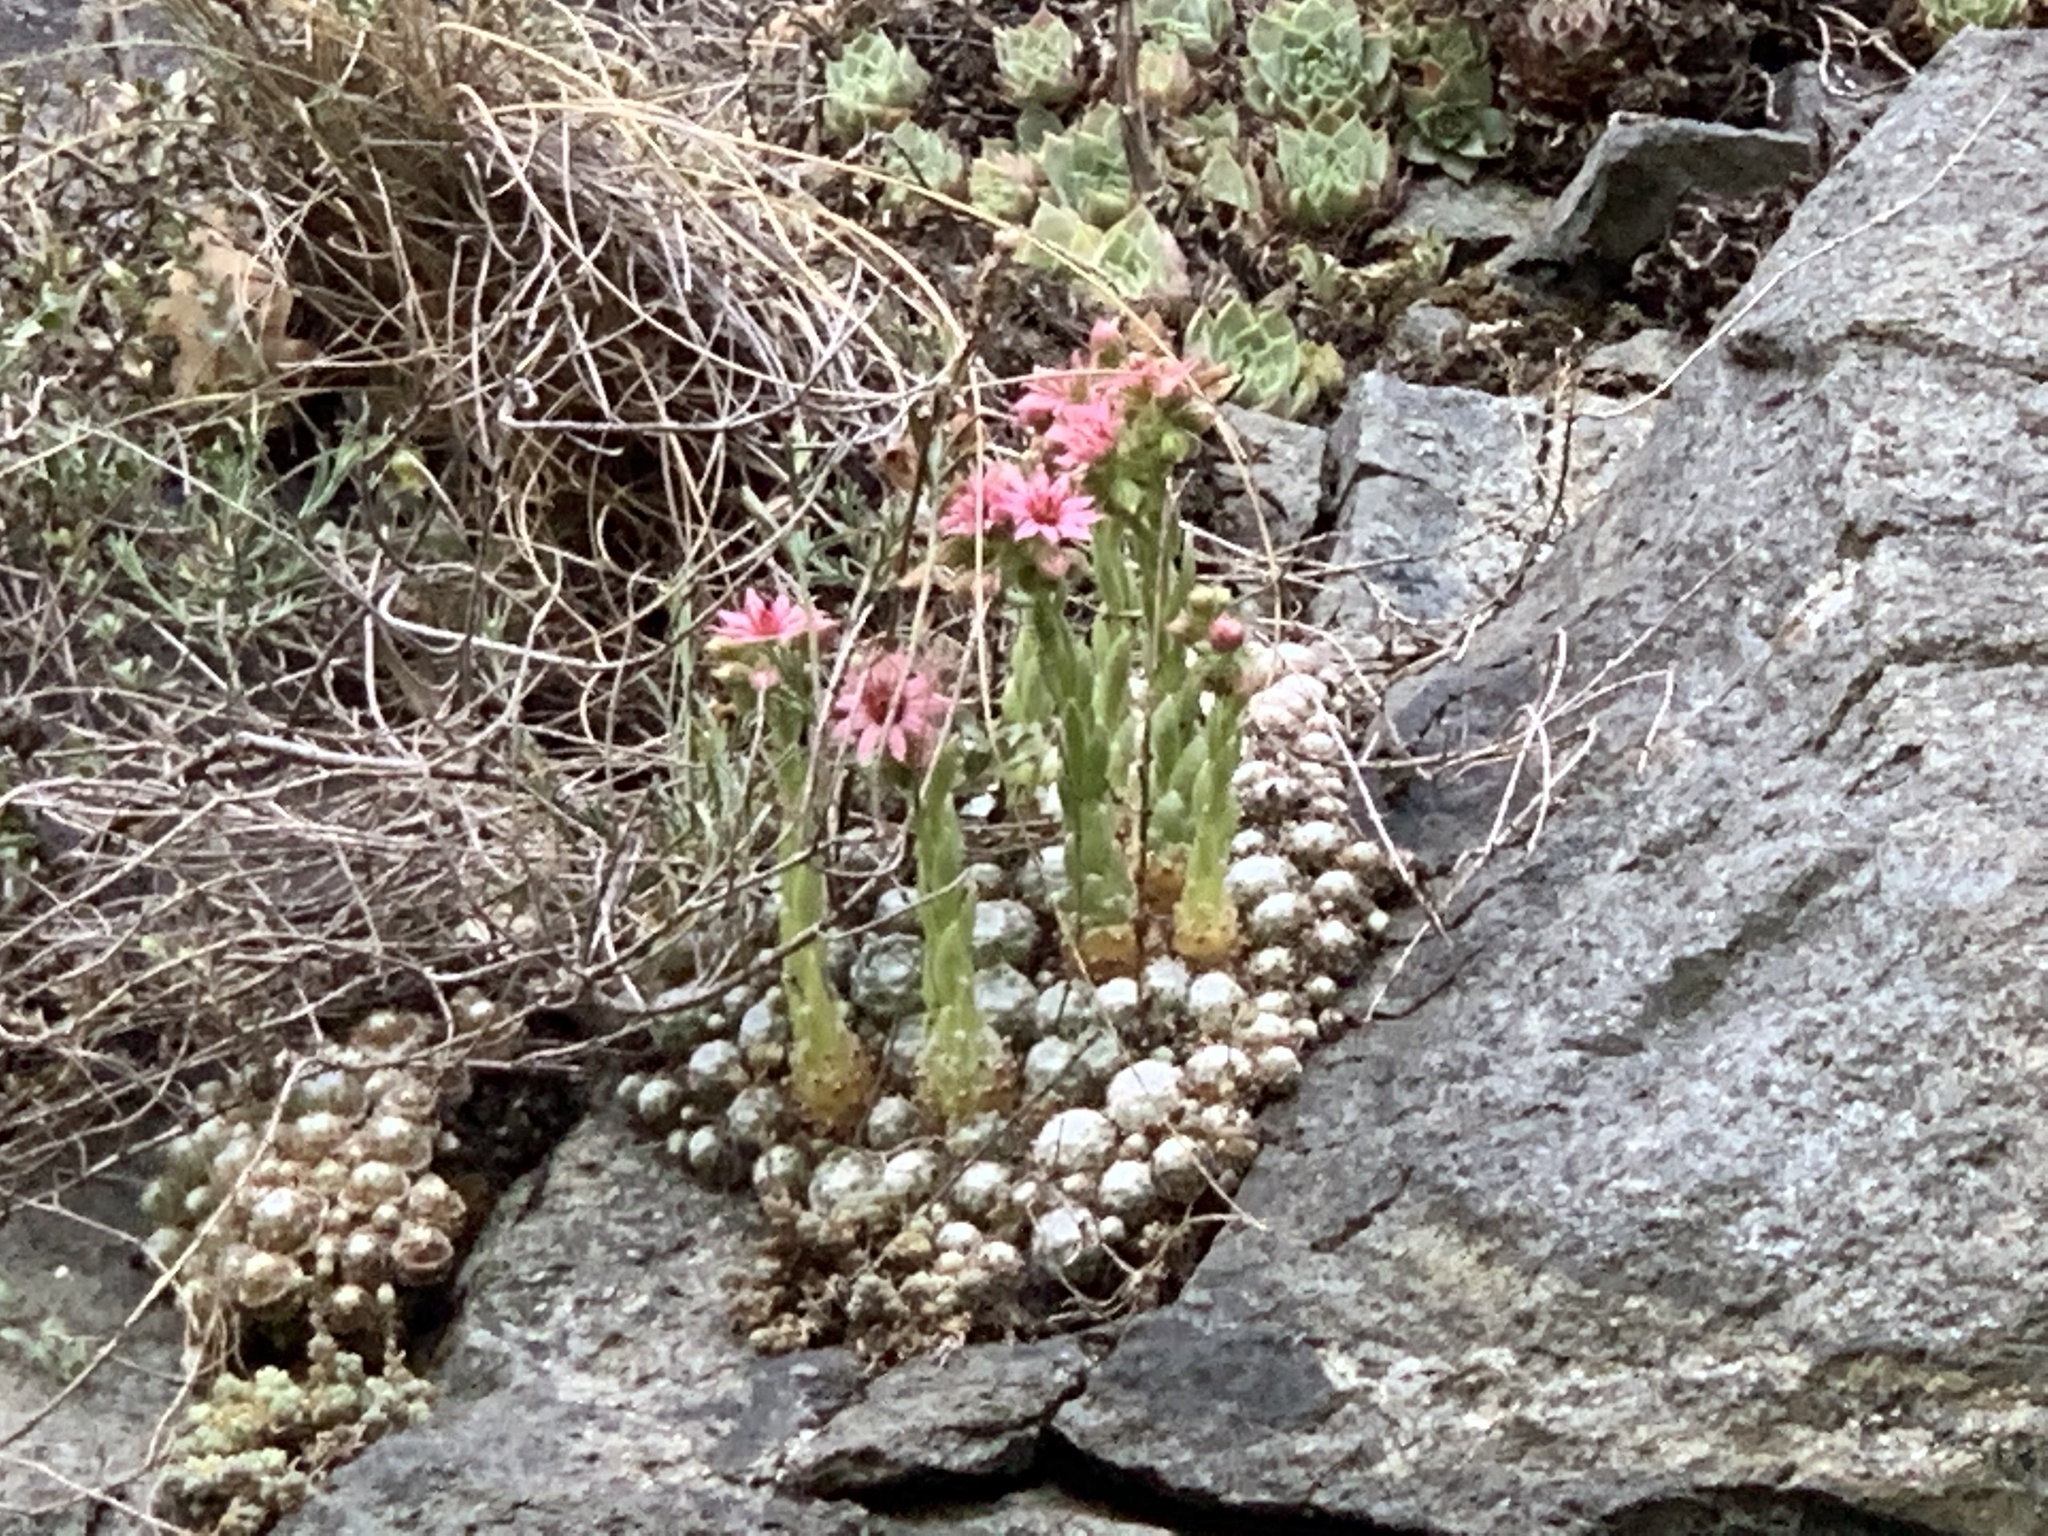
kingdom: Plantae
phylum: Tracheophyta
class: Magnoliopsida
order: Saxifragales
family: Crassulaceae
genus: Sempervivum
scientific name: Sempervivum arachnoideum
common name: Cobweb house-leek
